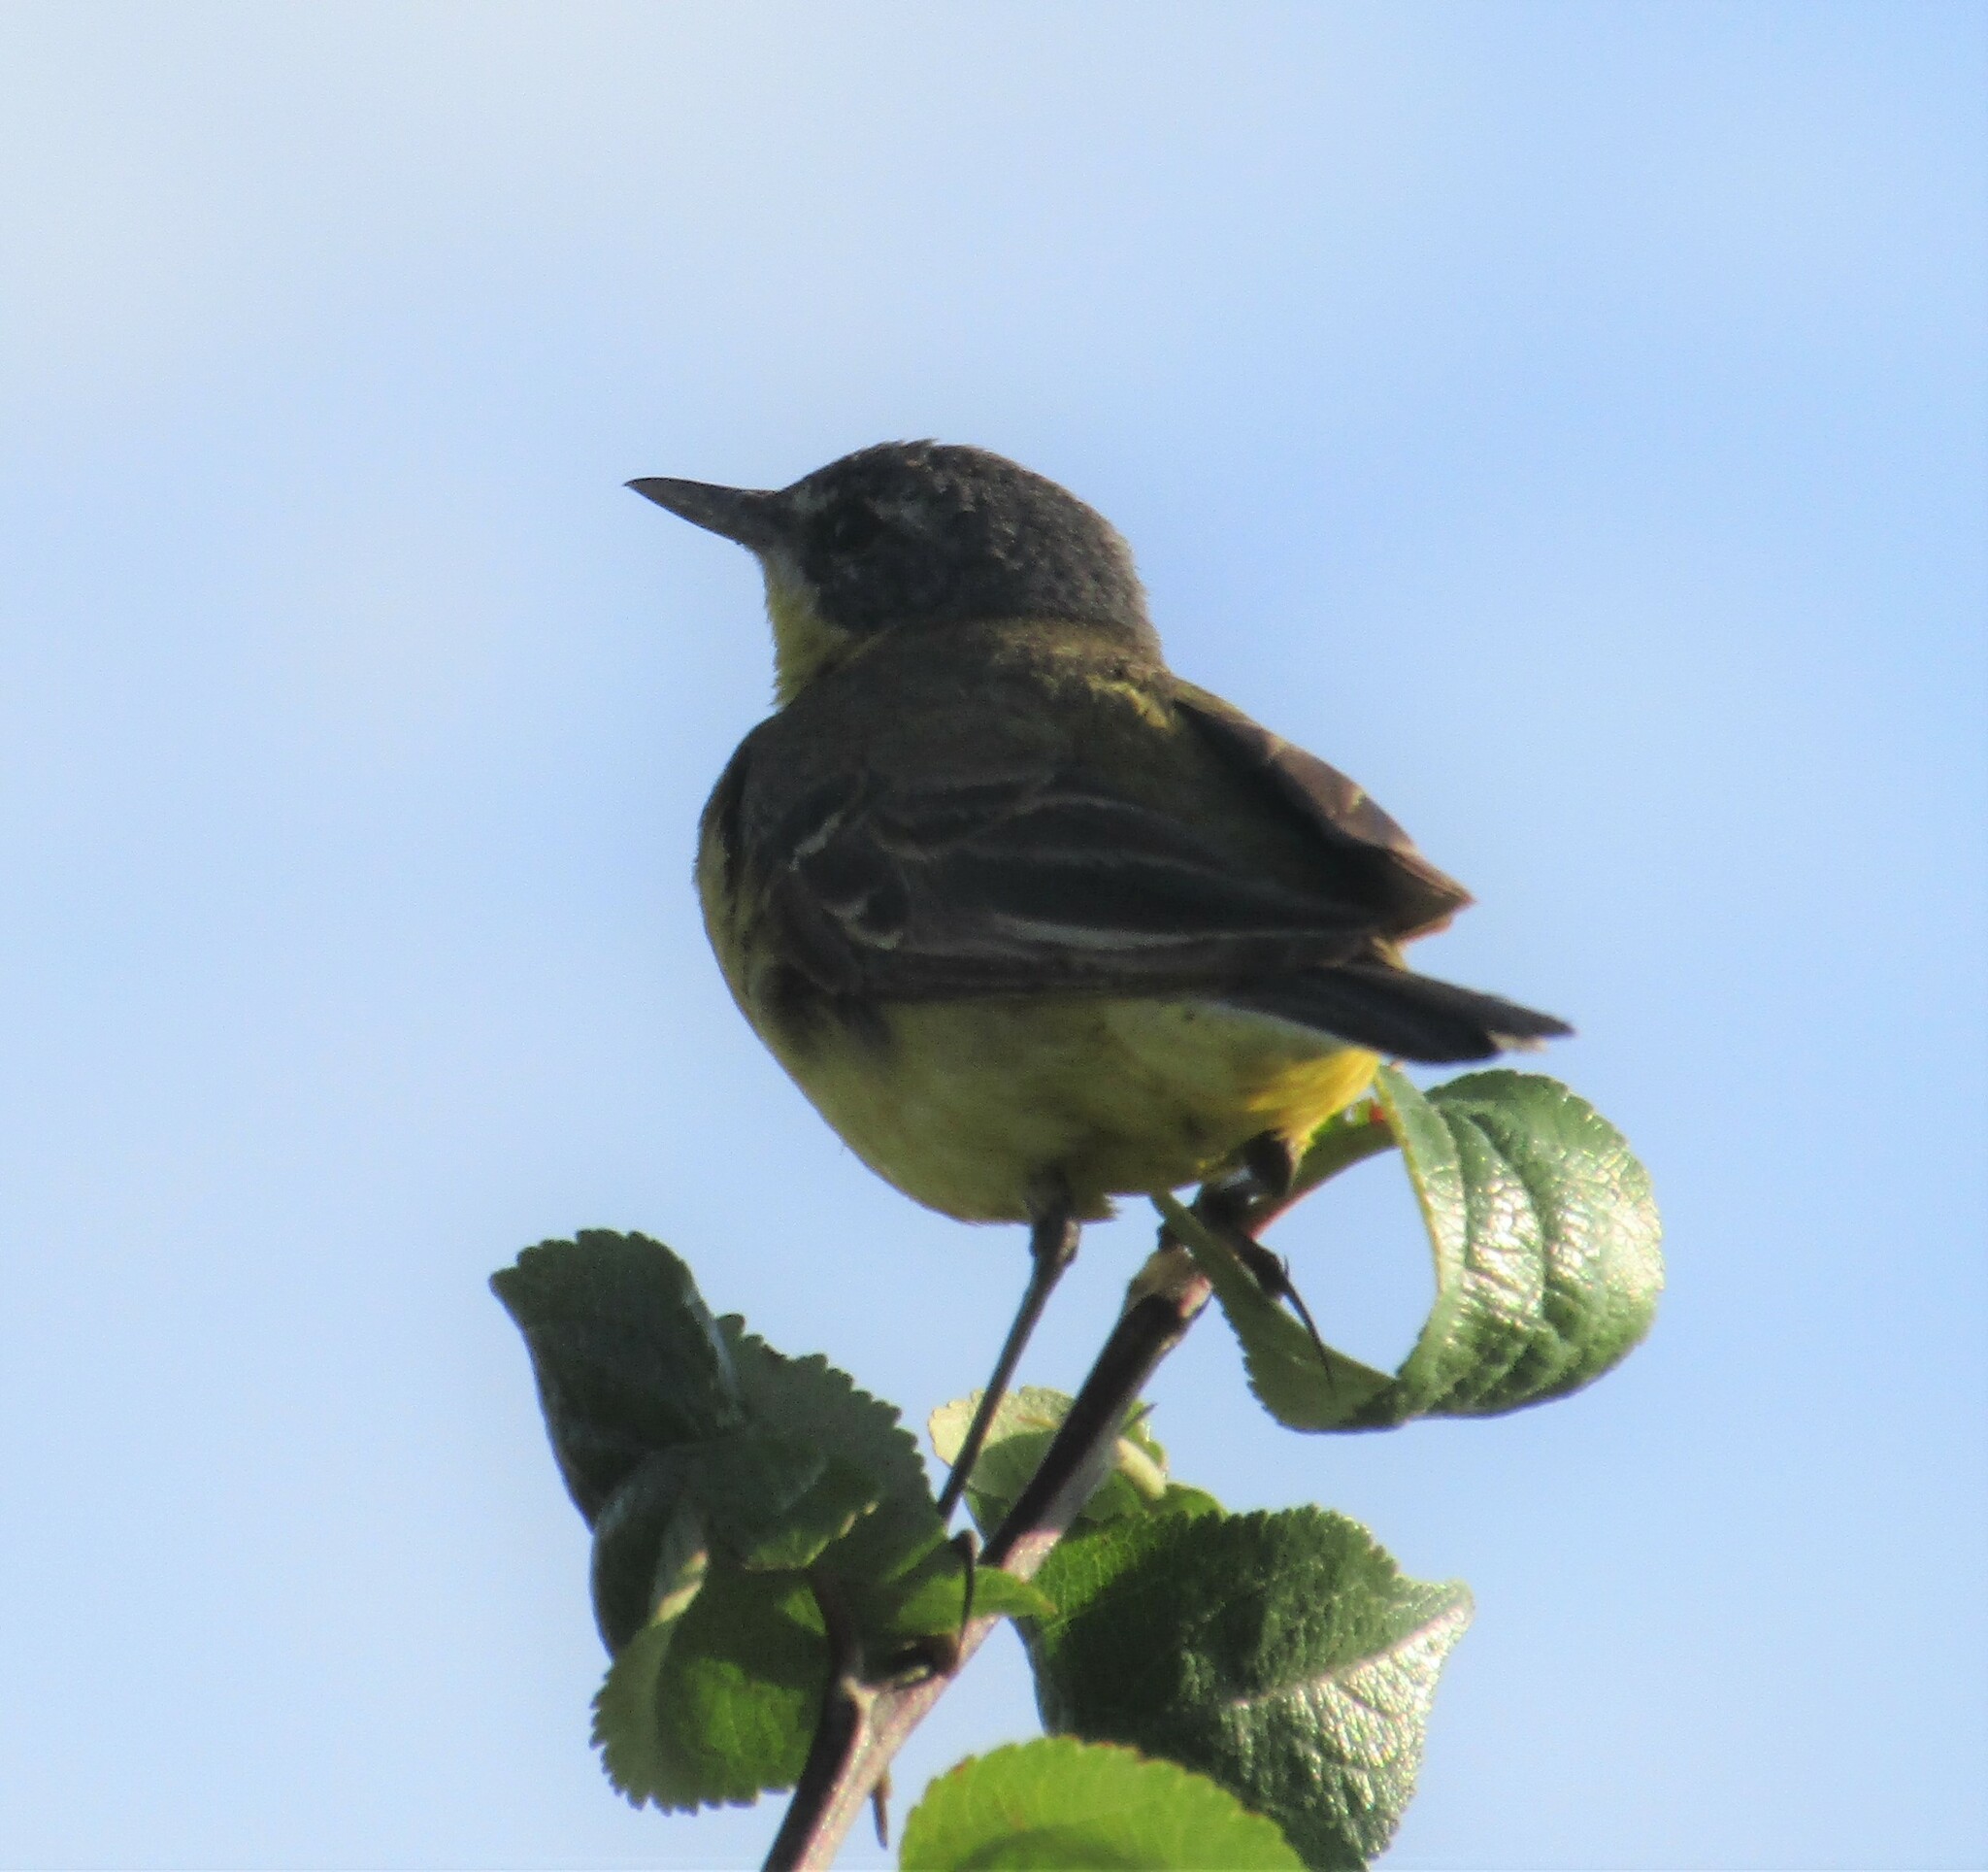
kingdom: Animalia
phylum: Chordata
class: Aves
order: Passeriformes
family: Motacillidae
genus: Motacilla
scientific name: Motacilla flava
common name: Western yellow wagtail
